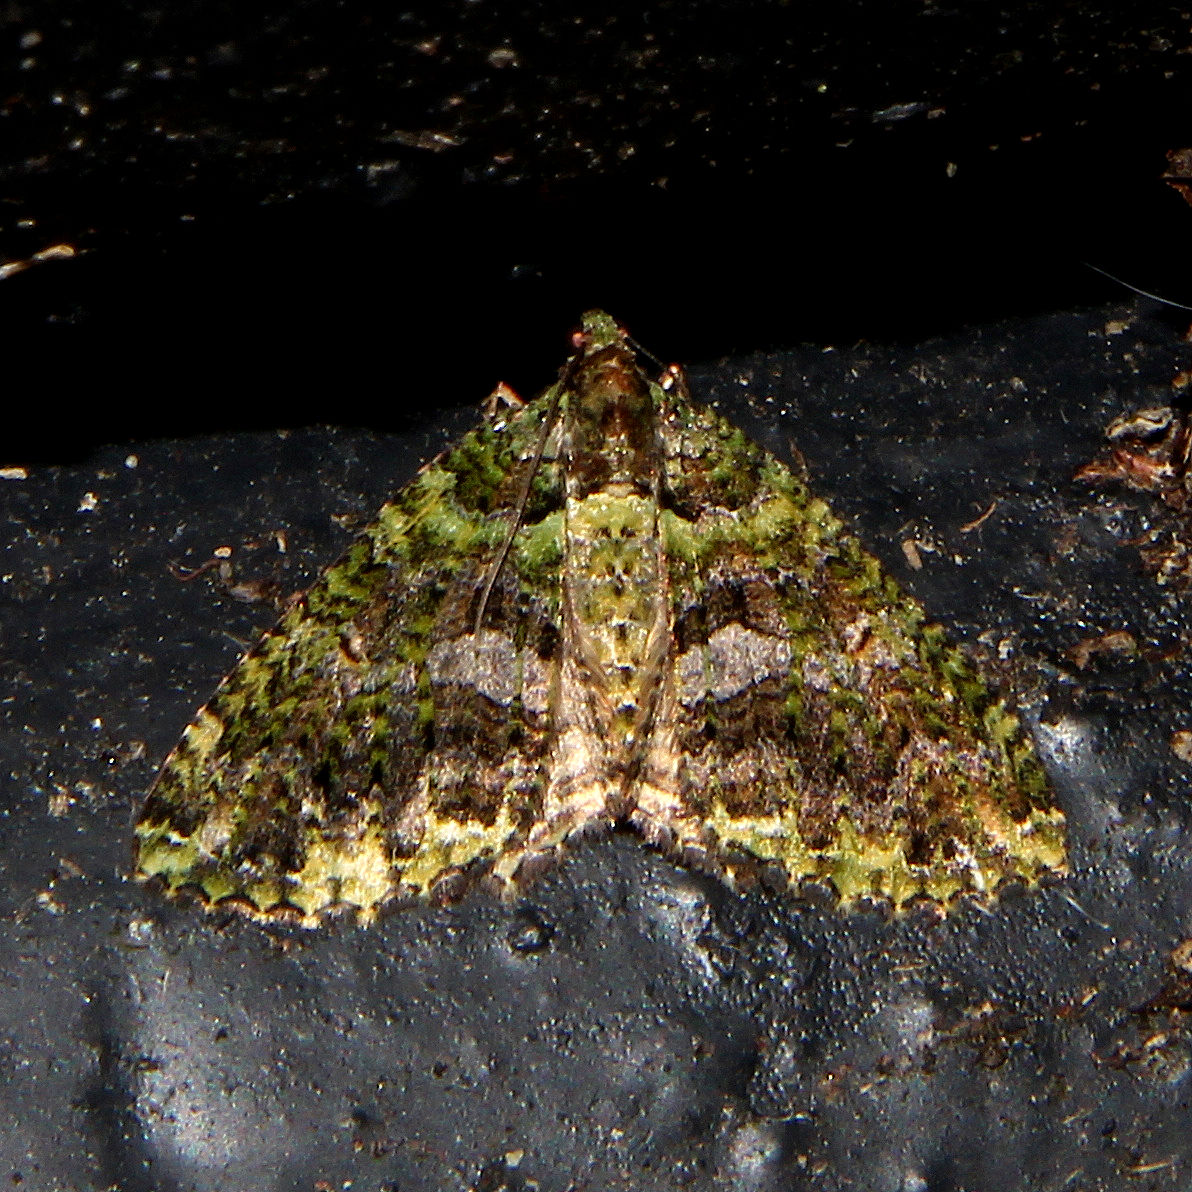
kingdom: Animalia
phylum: Arthropoda
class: Insecta
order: Lepidoptera
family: Geometridae
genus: Austrocidaria
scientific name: Austrocidaria similata
